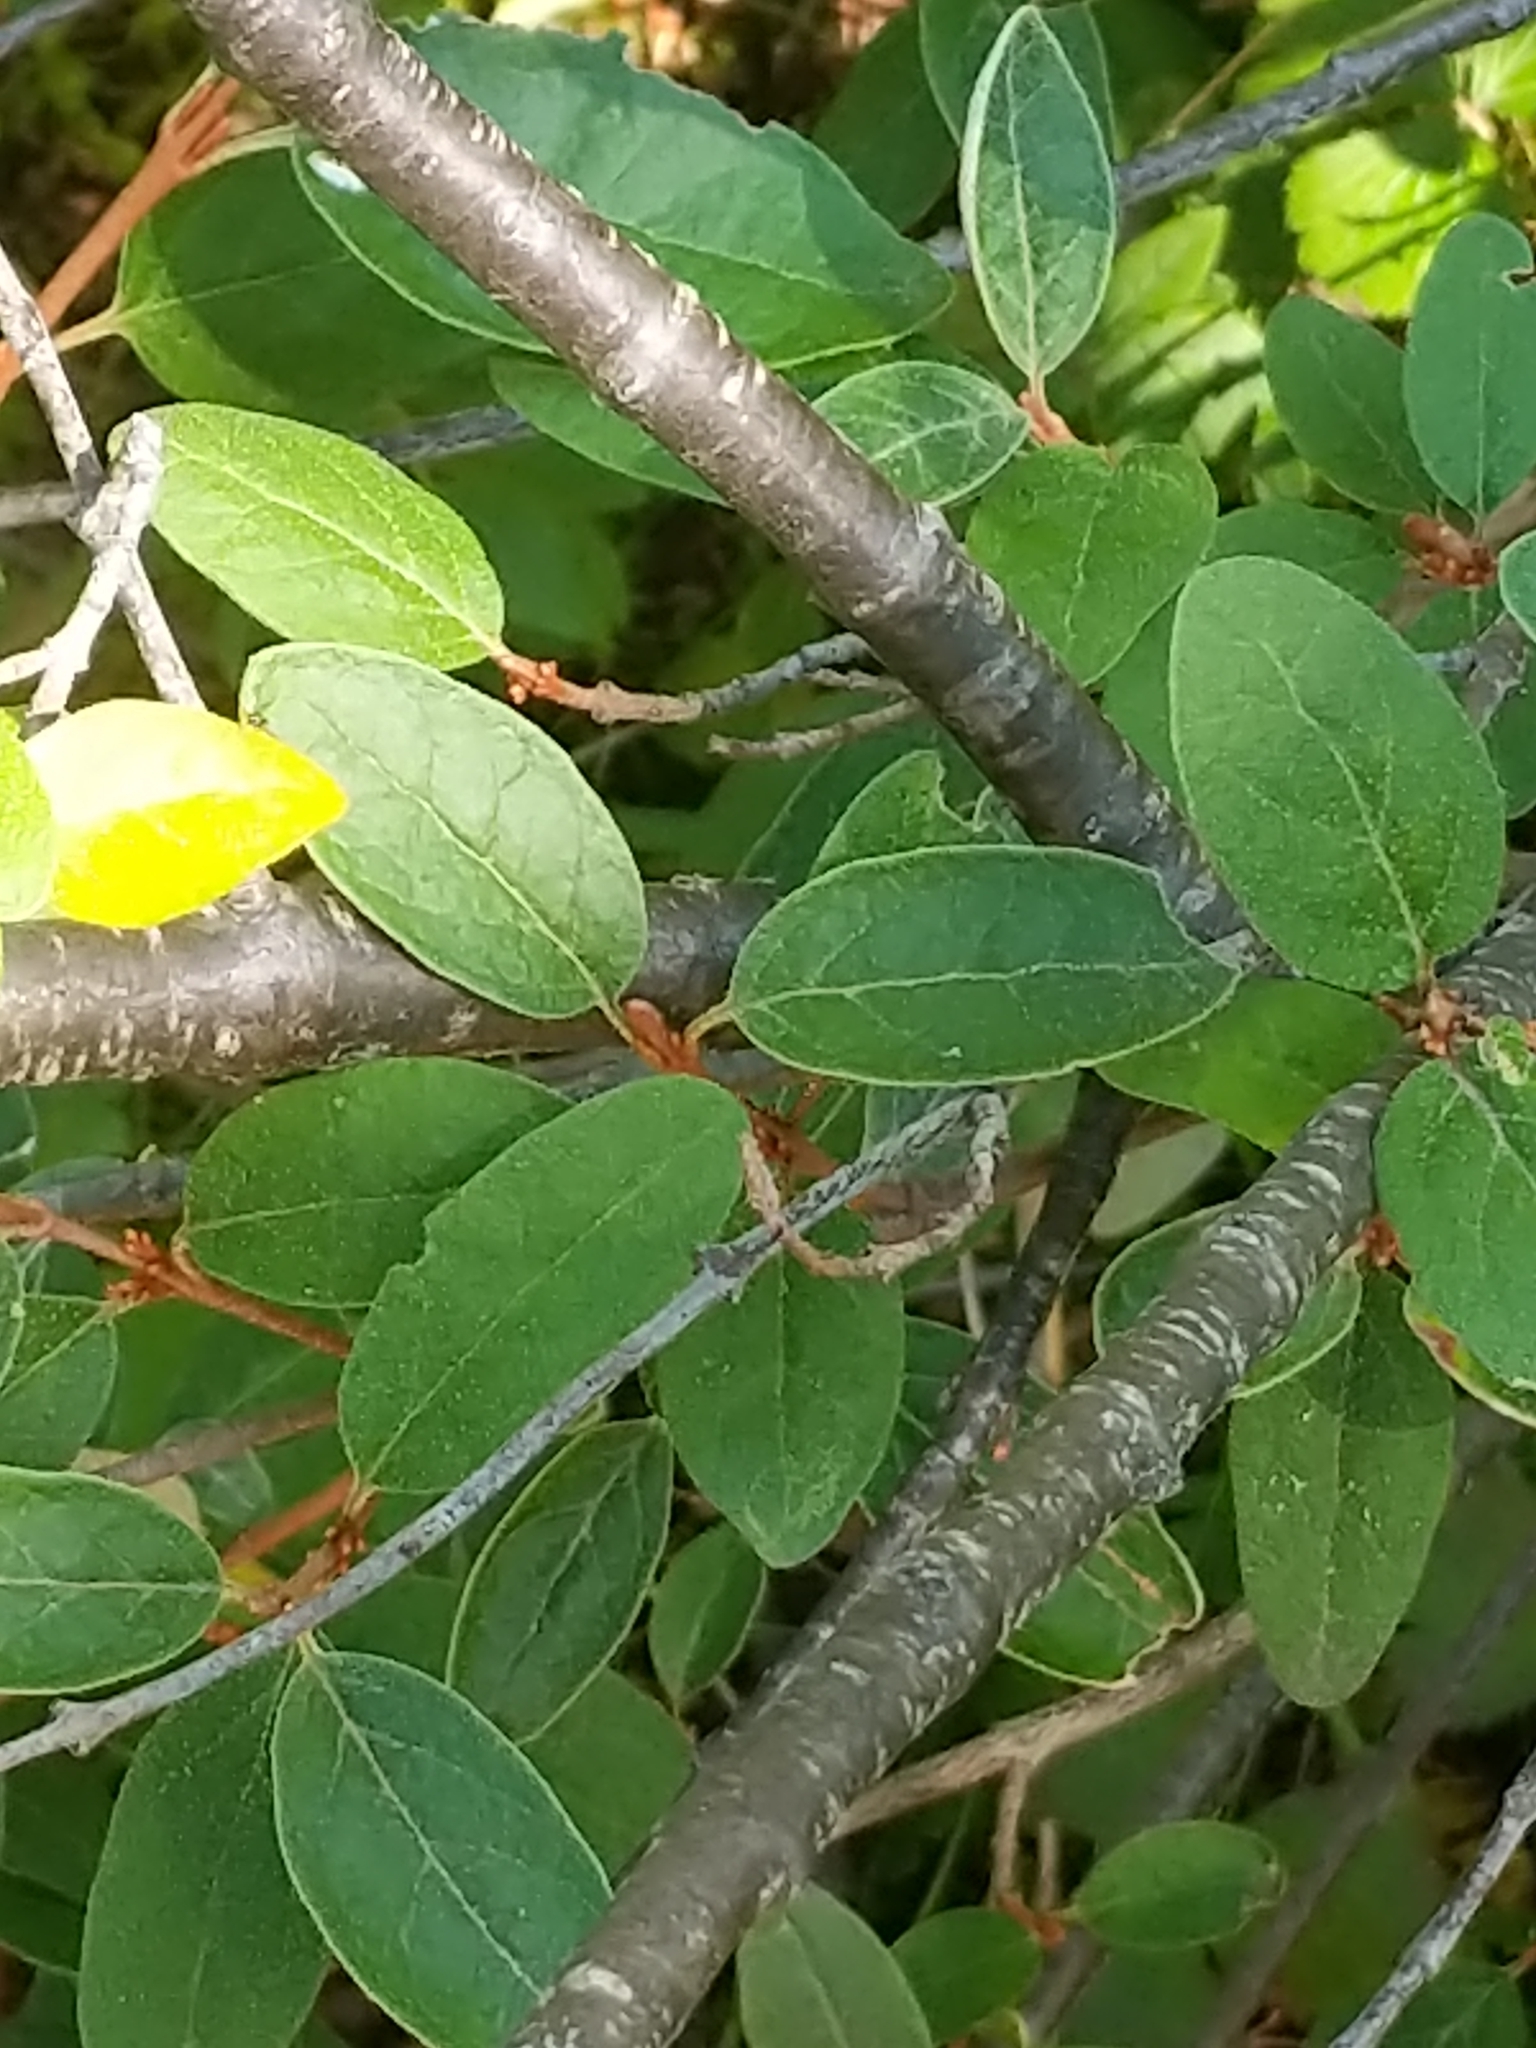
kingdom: Plantae
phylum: Tracheophyta
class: Magnoliopsida
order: Rosales
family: Elaeagnaceae
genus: Shepherdia
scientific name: Shepherdia canadensis
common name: Soapberry
